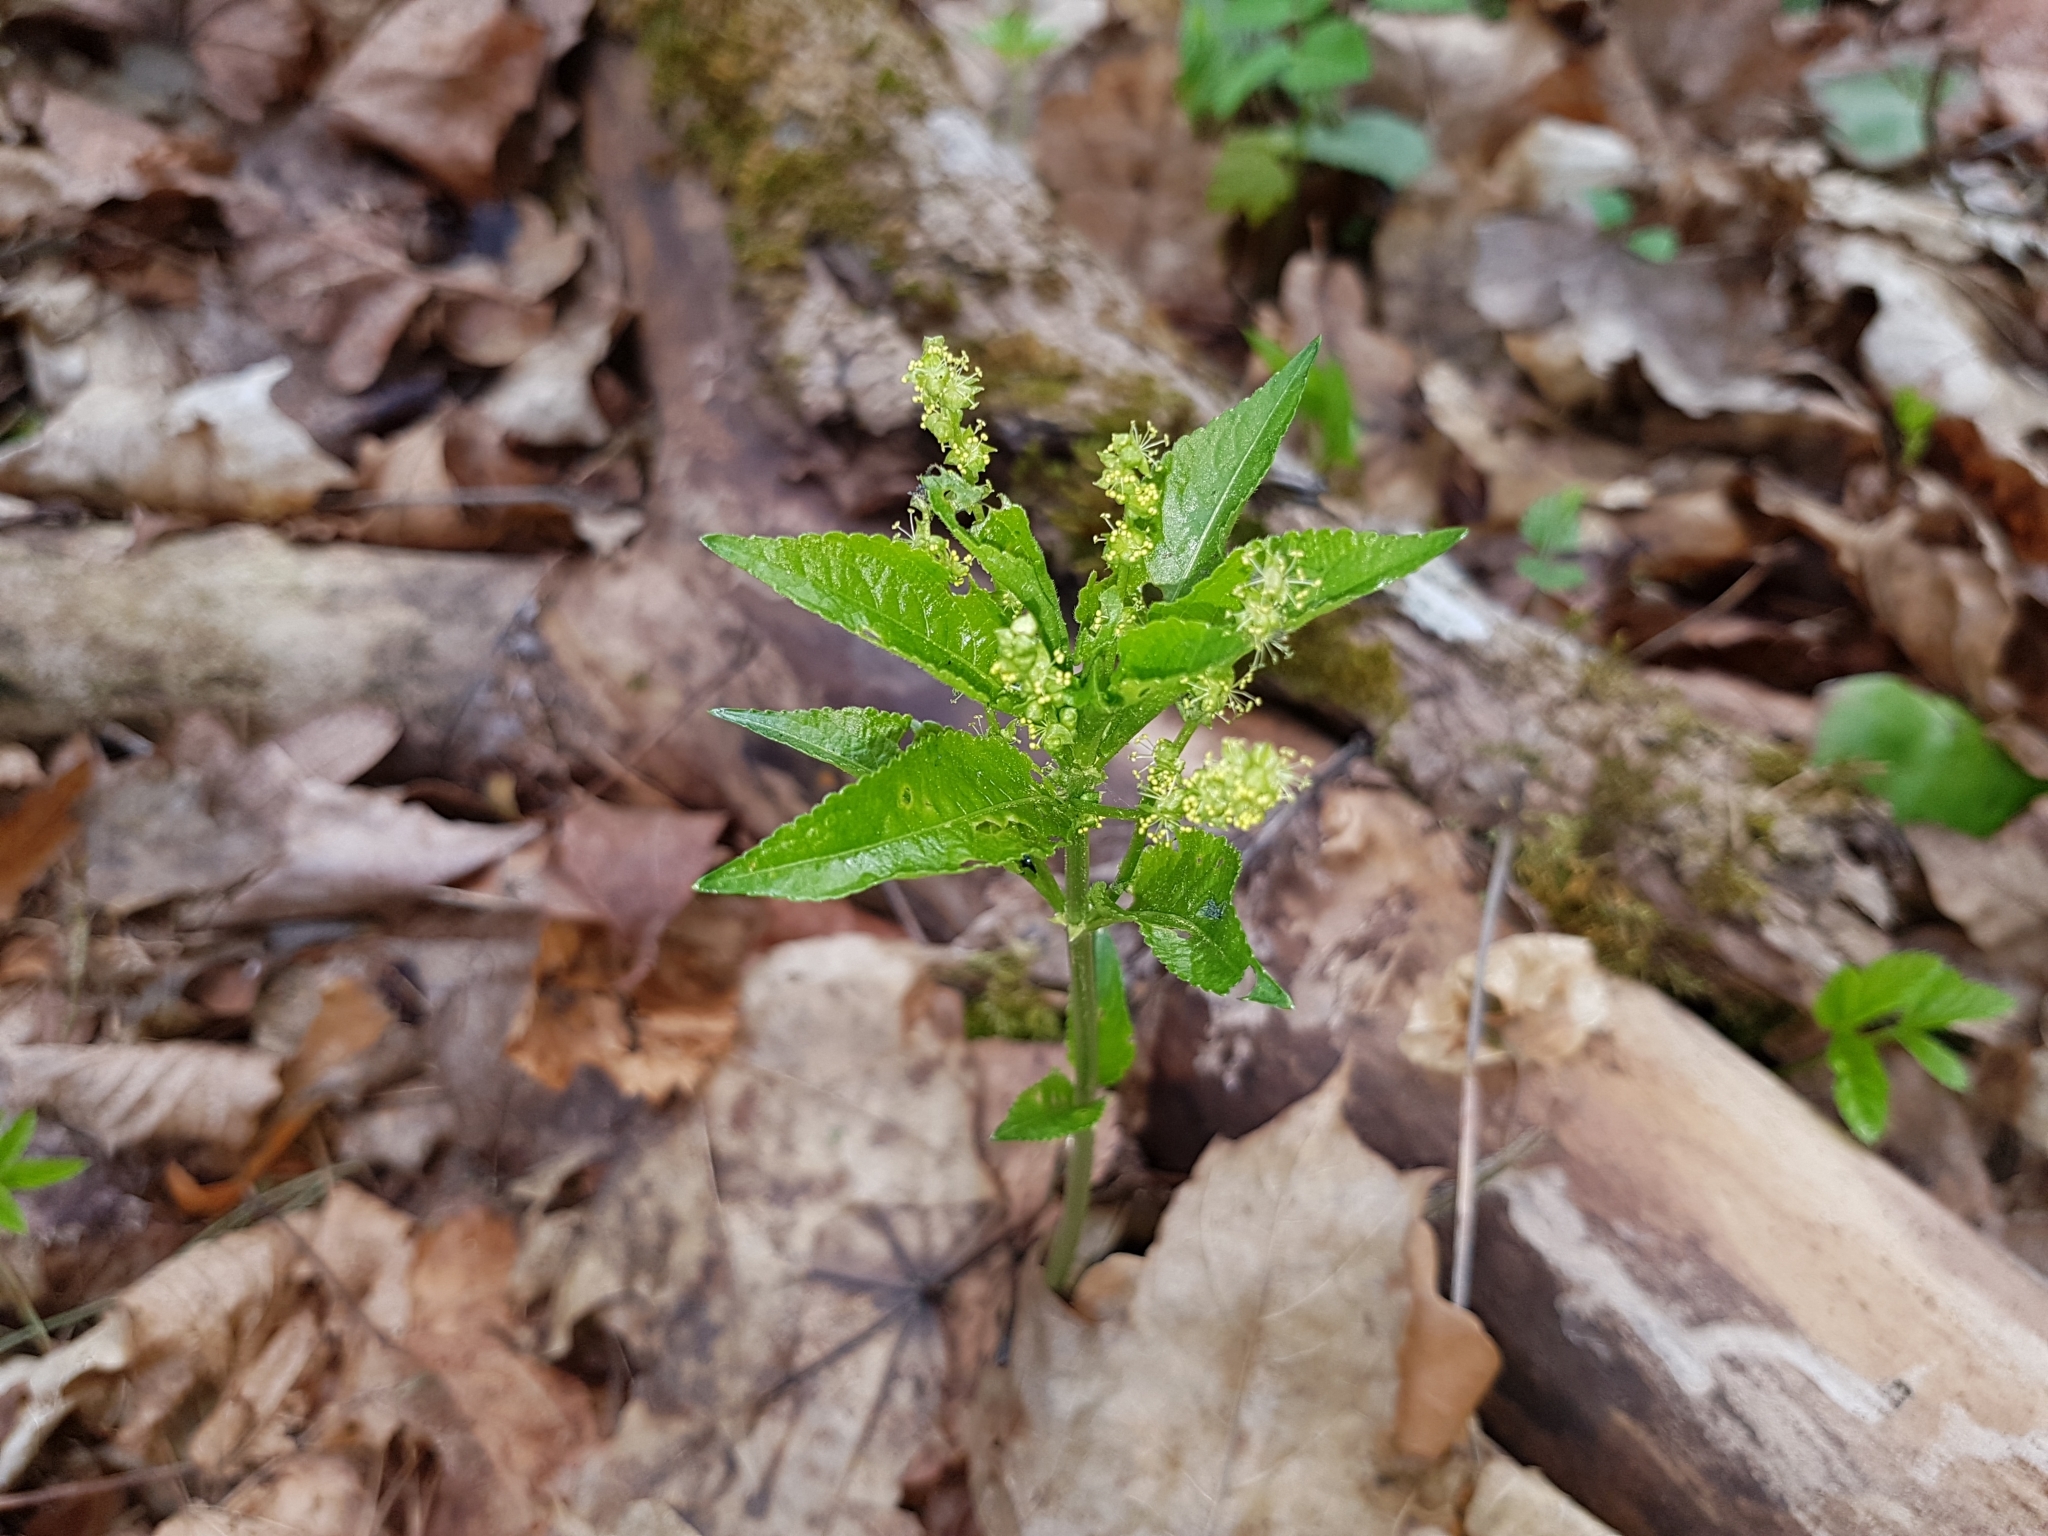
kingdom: Plantae
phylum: Tracheophyta
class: Magnoliopsida
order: Malpighiales
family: Euphorbiaceae
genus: Mercurialis
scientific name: Mercurialis perennis
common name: Dog mercury
